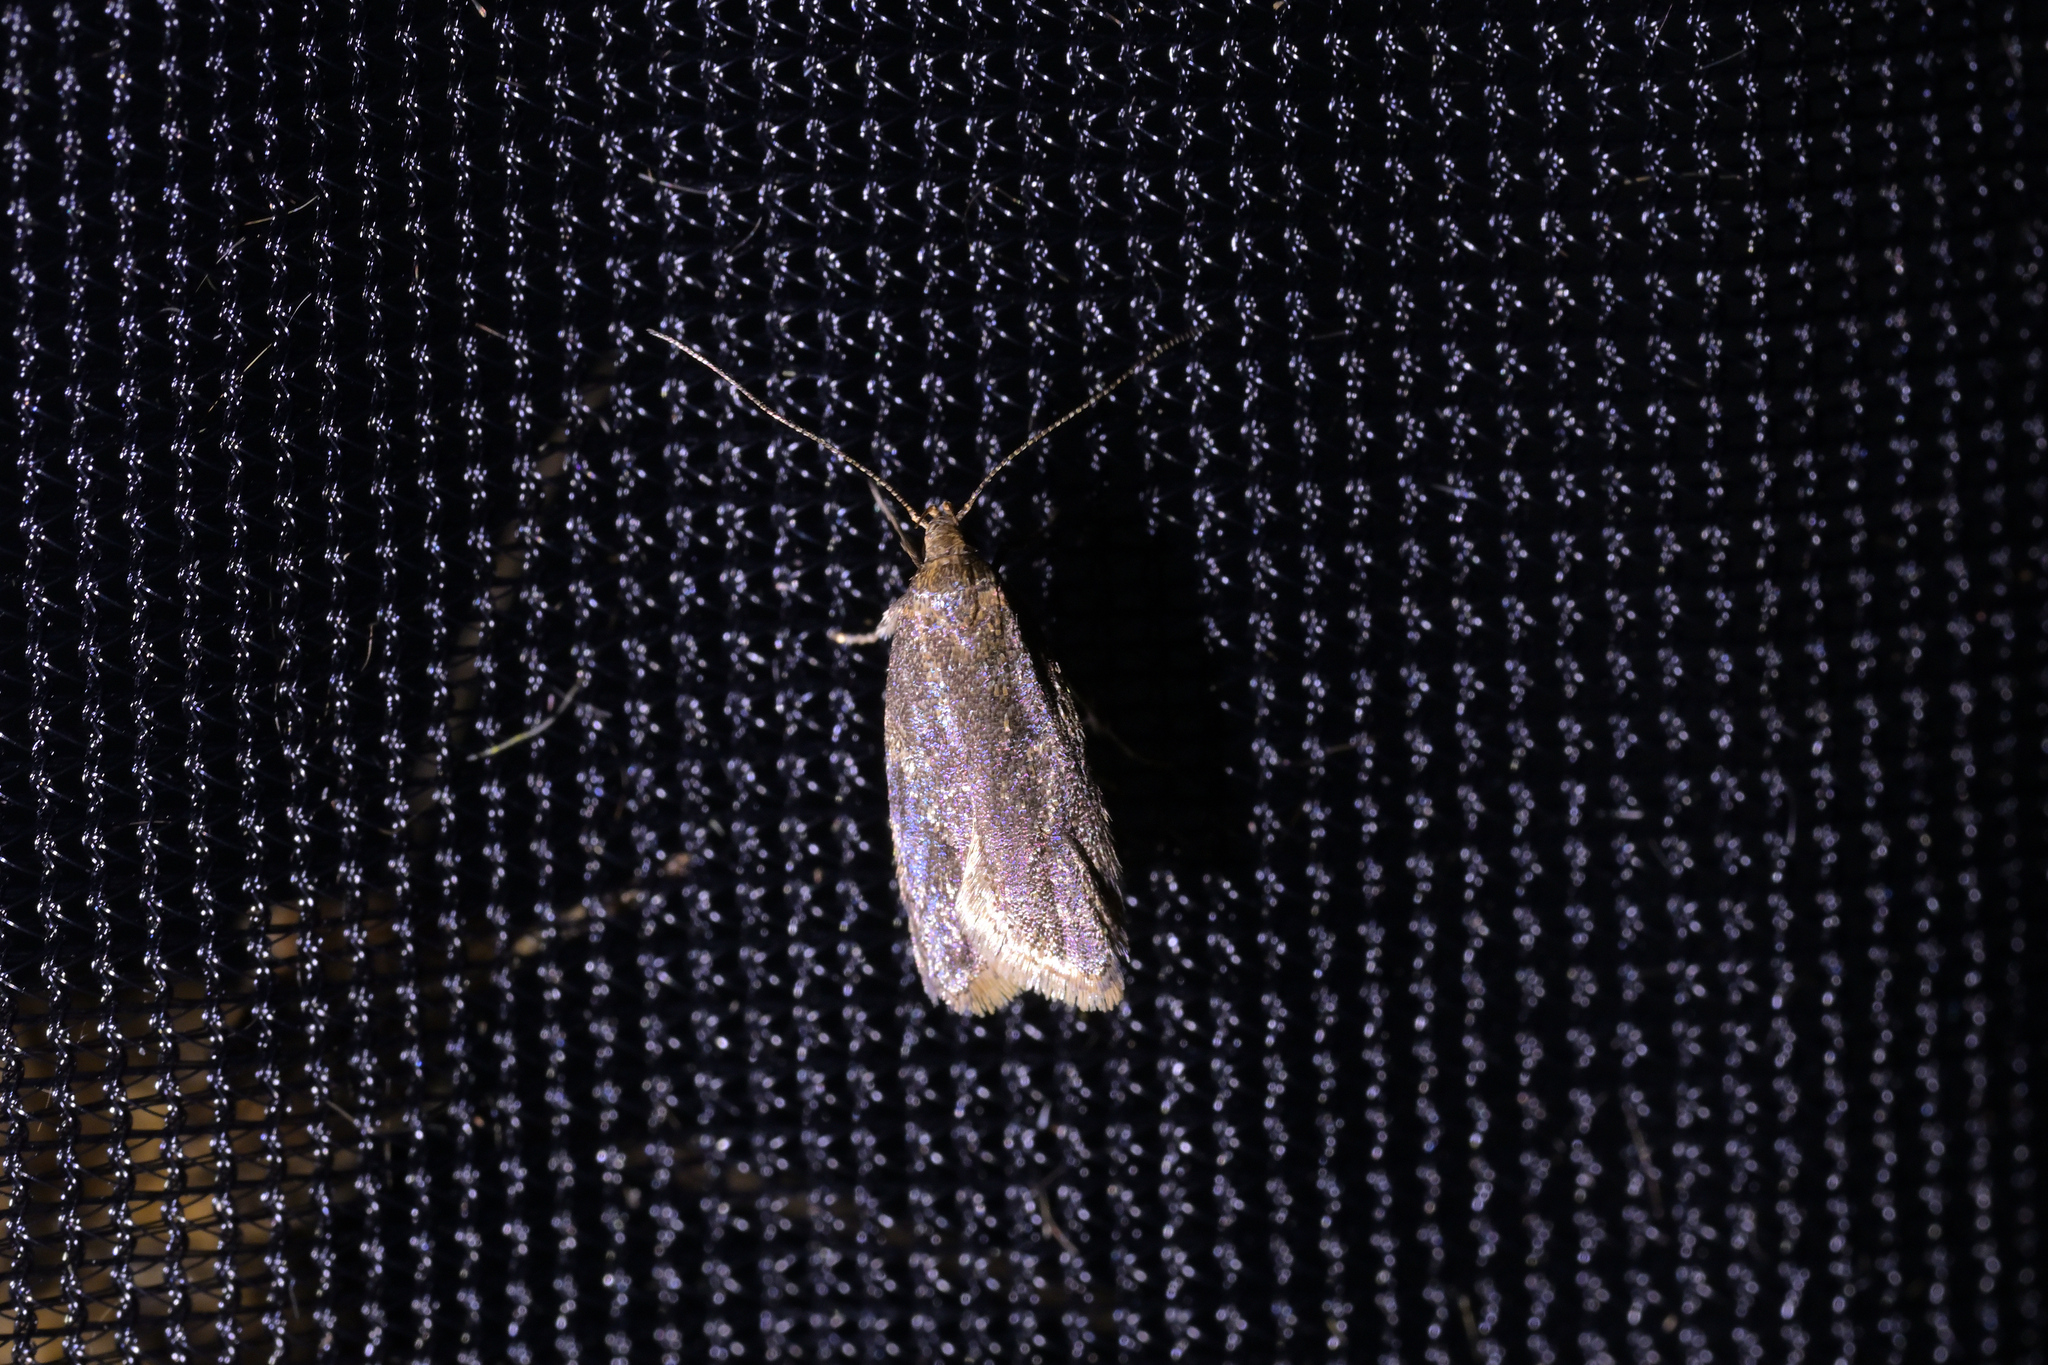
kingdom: Animalia
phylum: Arthropoda
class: Insecta
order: Lepidoptera
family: Oecophoridae
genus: Gymnobathra
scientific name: Gymnobathra tholodella
